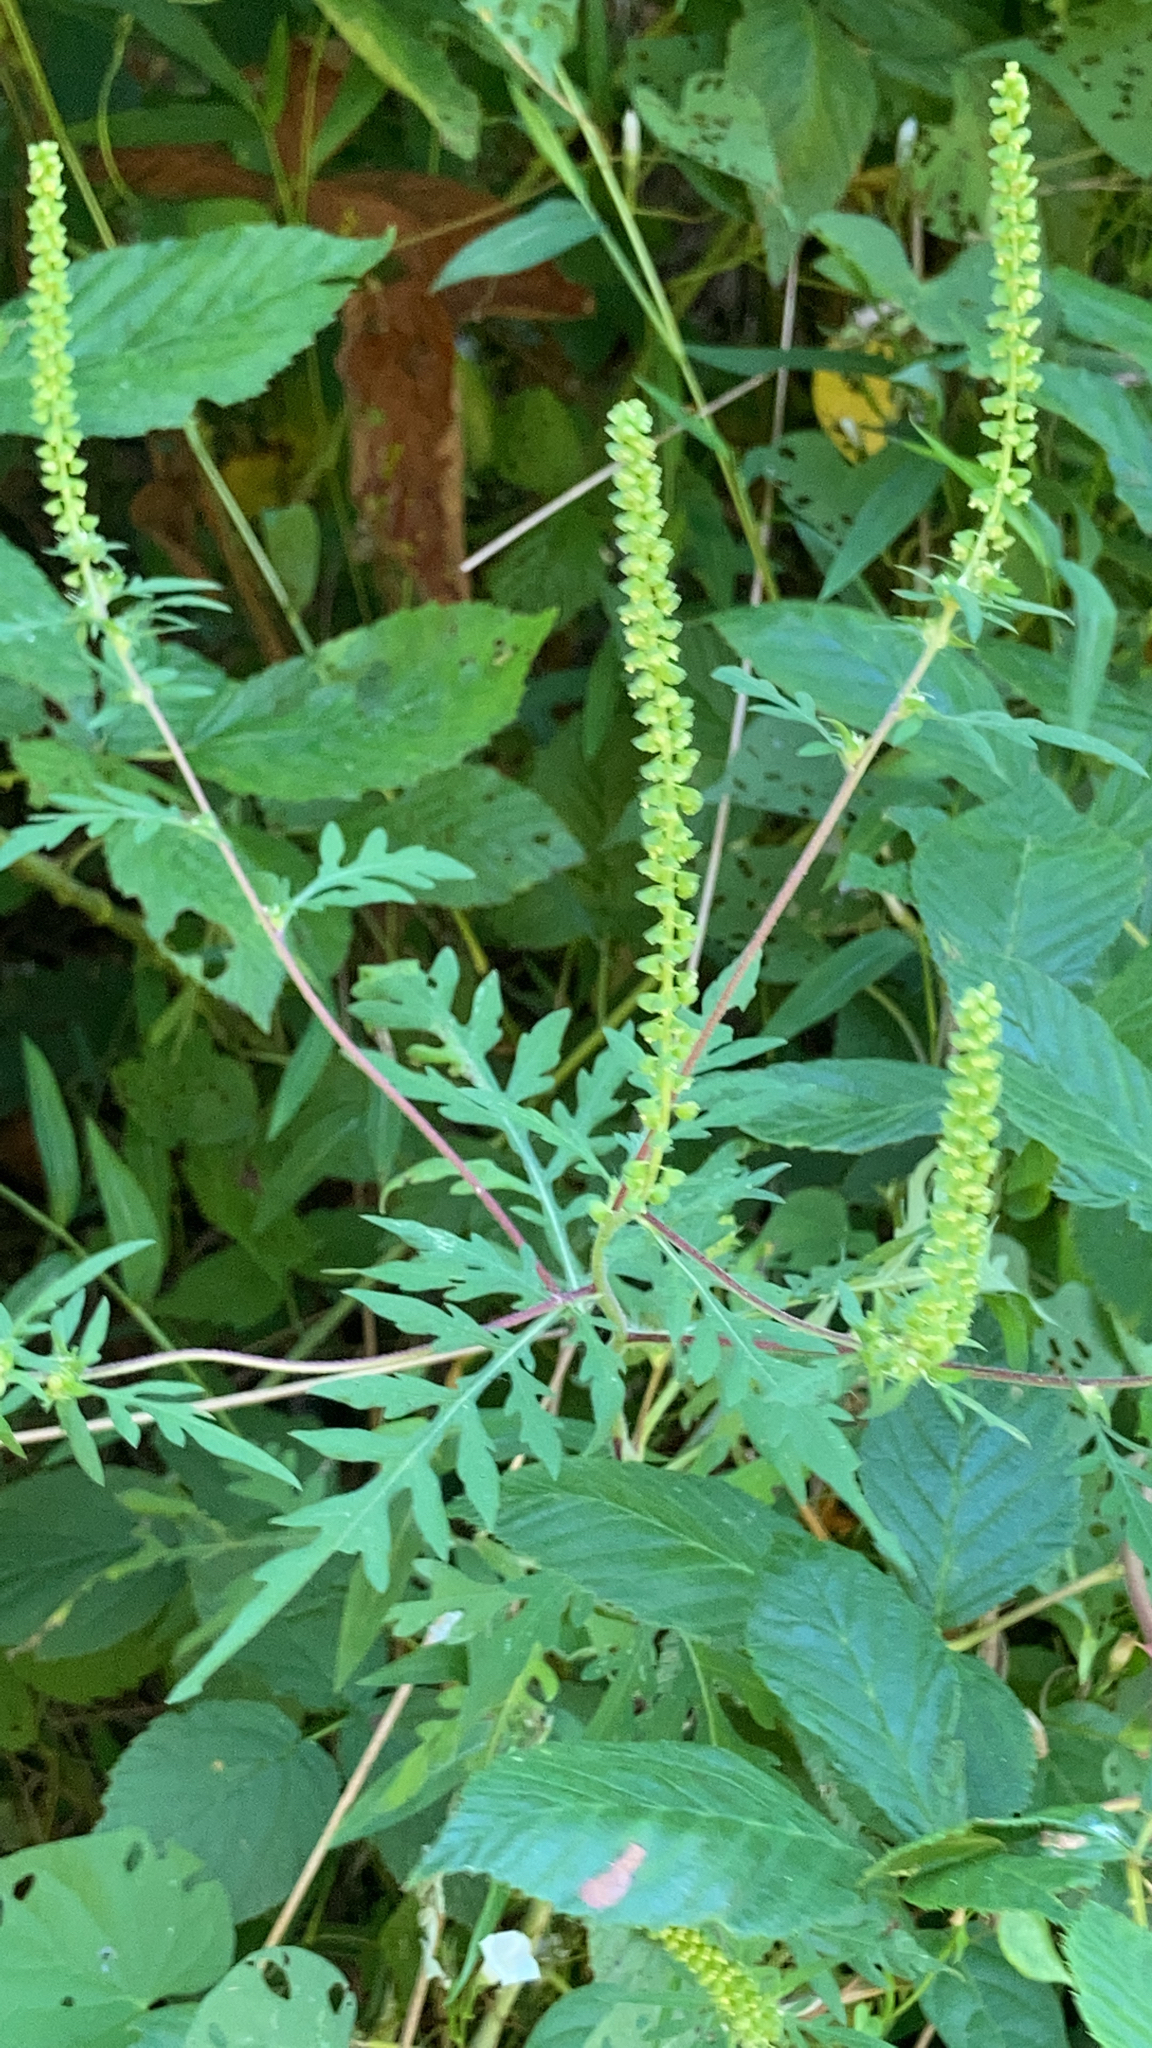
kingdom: Plantae
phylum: Tracheophyta
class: Magnoliopsida
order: Asterales
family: Asteraceae
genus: Ambrosia
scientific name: Ambrosia artemisiifolia
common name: Annual ragweed
